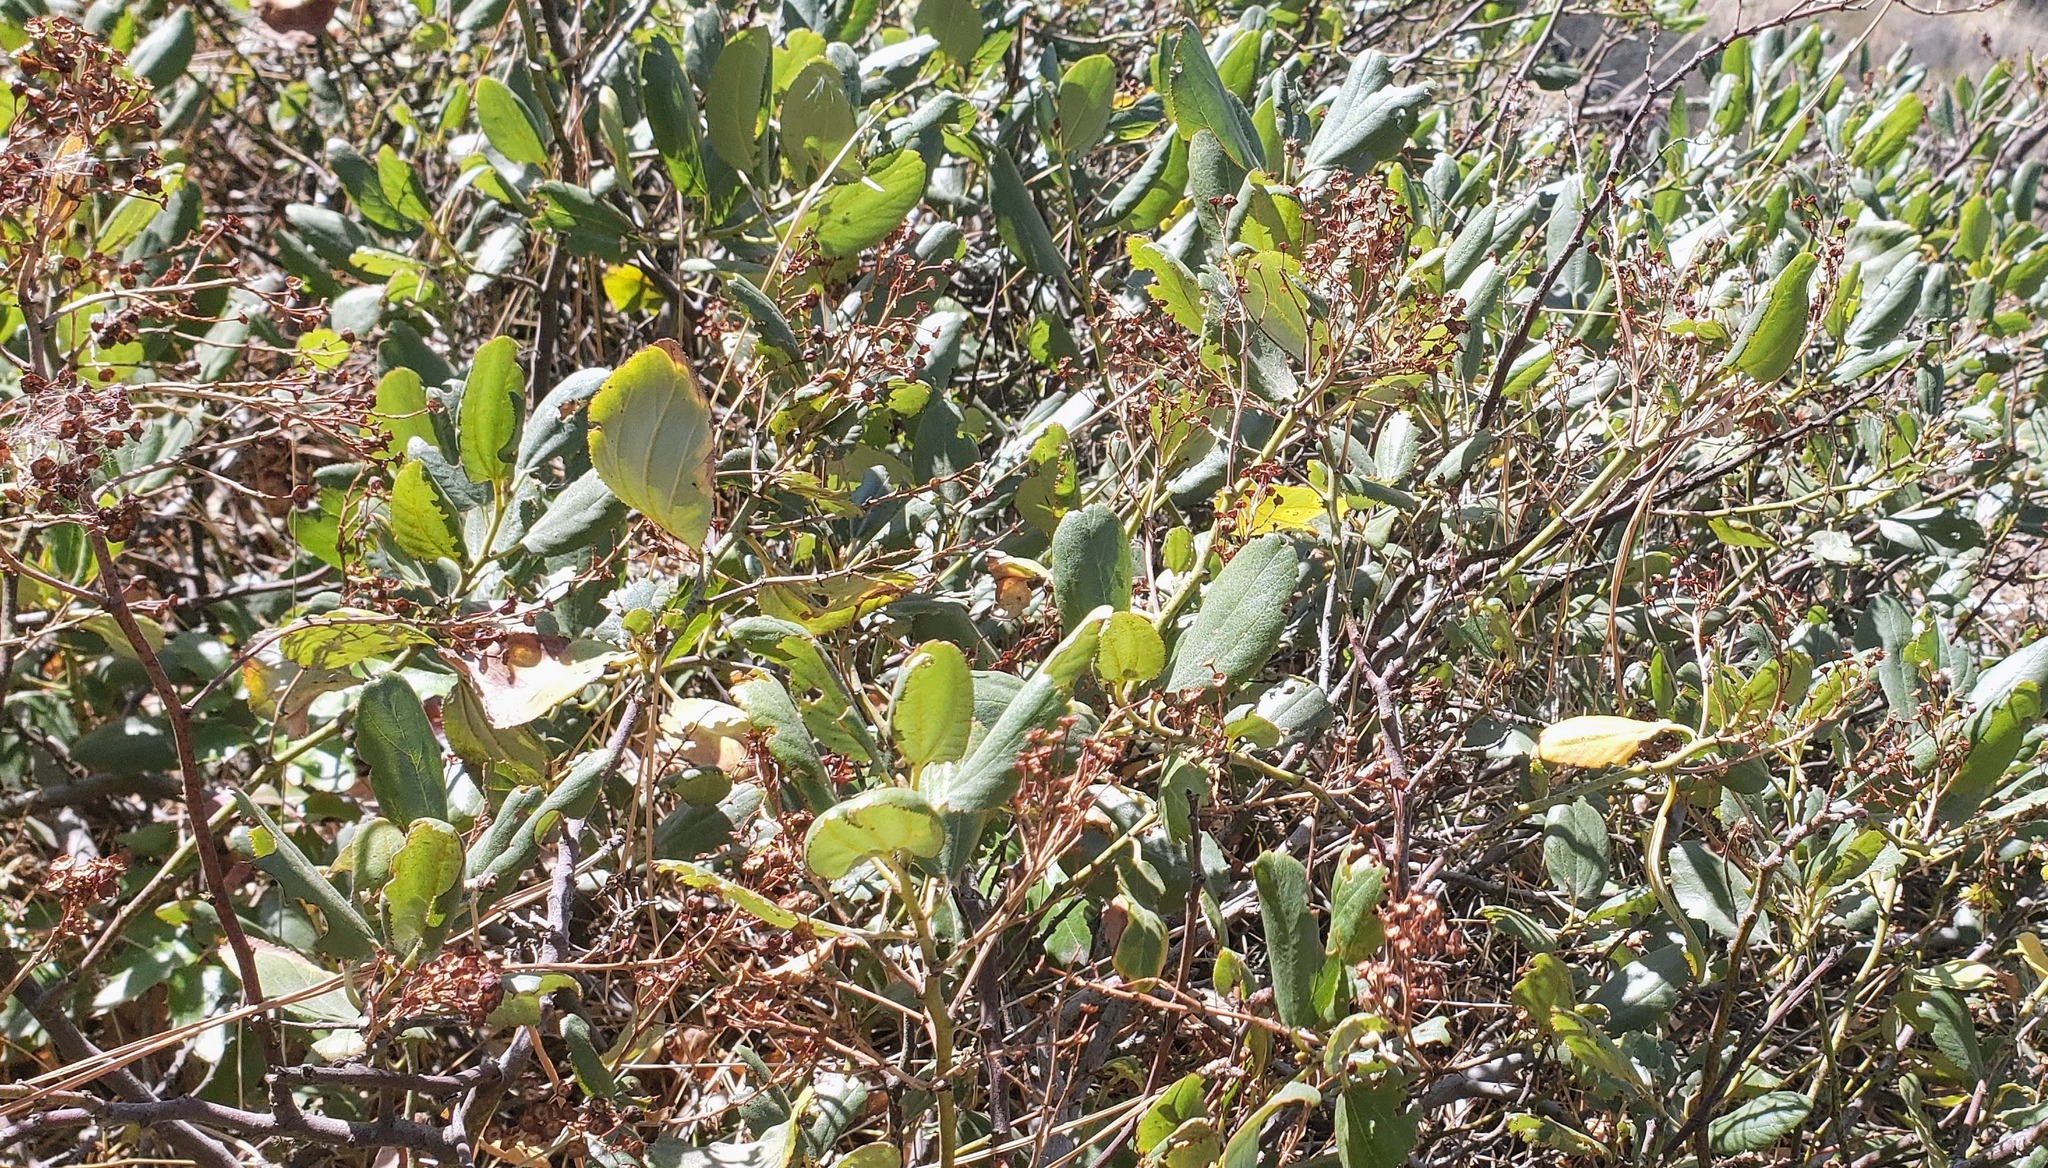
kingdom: Plantae
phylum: Tracheophyta
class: Magnoliopsida
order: Rosales
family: Rhamnaceae
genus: Ceanothus
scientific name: Ceanothus velutinus
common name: Snowbrush
